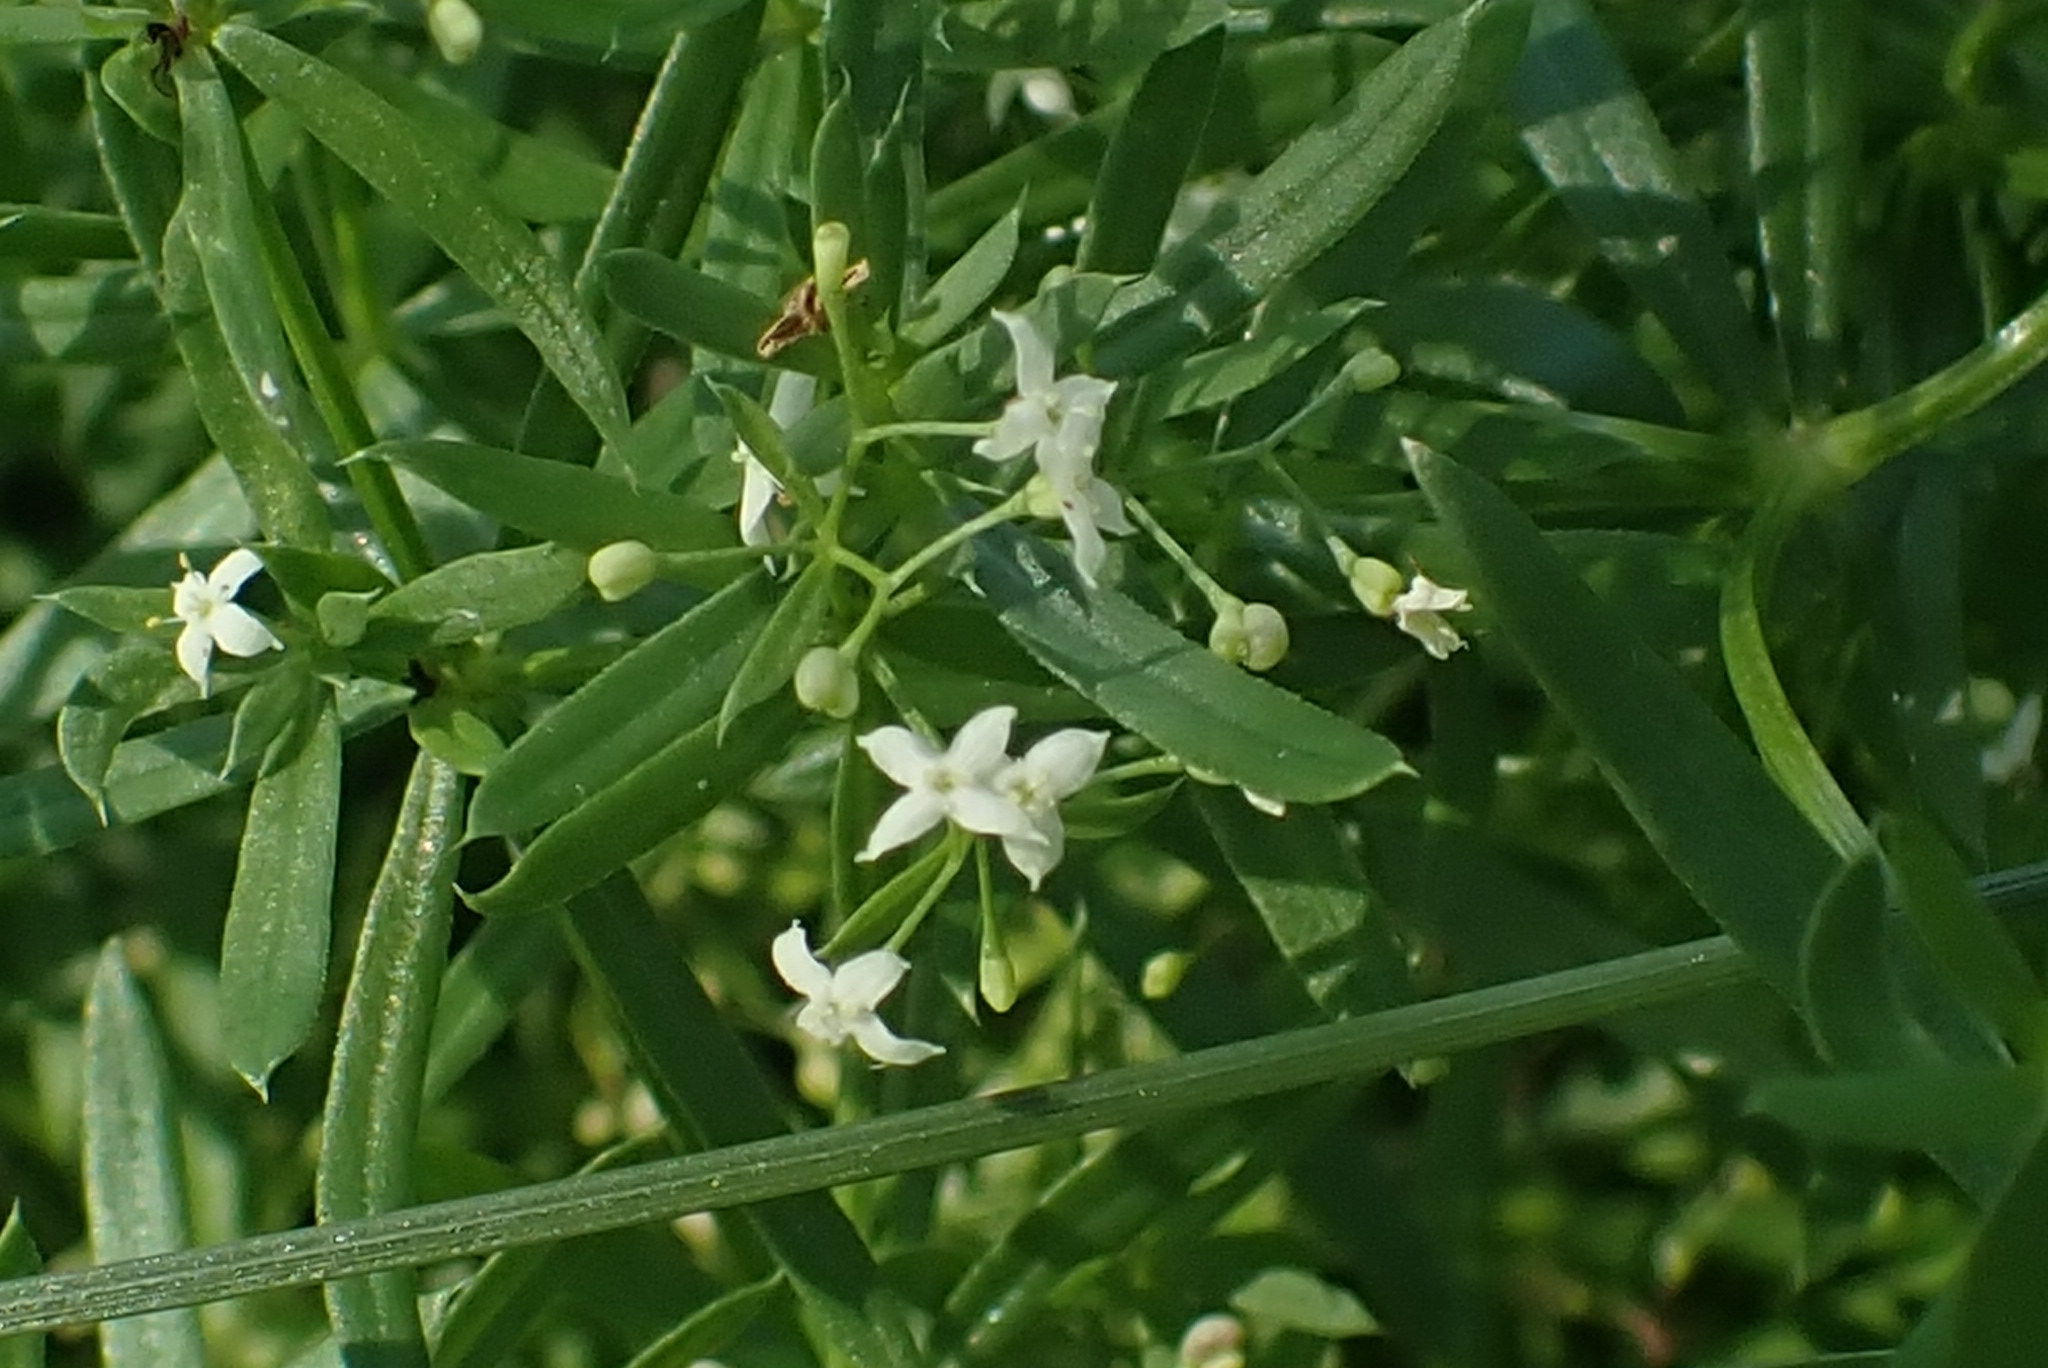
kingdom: Plantae
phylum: Tracheophyta
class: Magnoliopsida
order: Gentianales
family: Rubiaceae
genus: Galium
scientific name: Galium mollugo
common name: Hedge bedstraw
